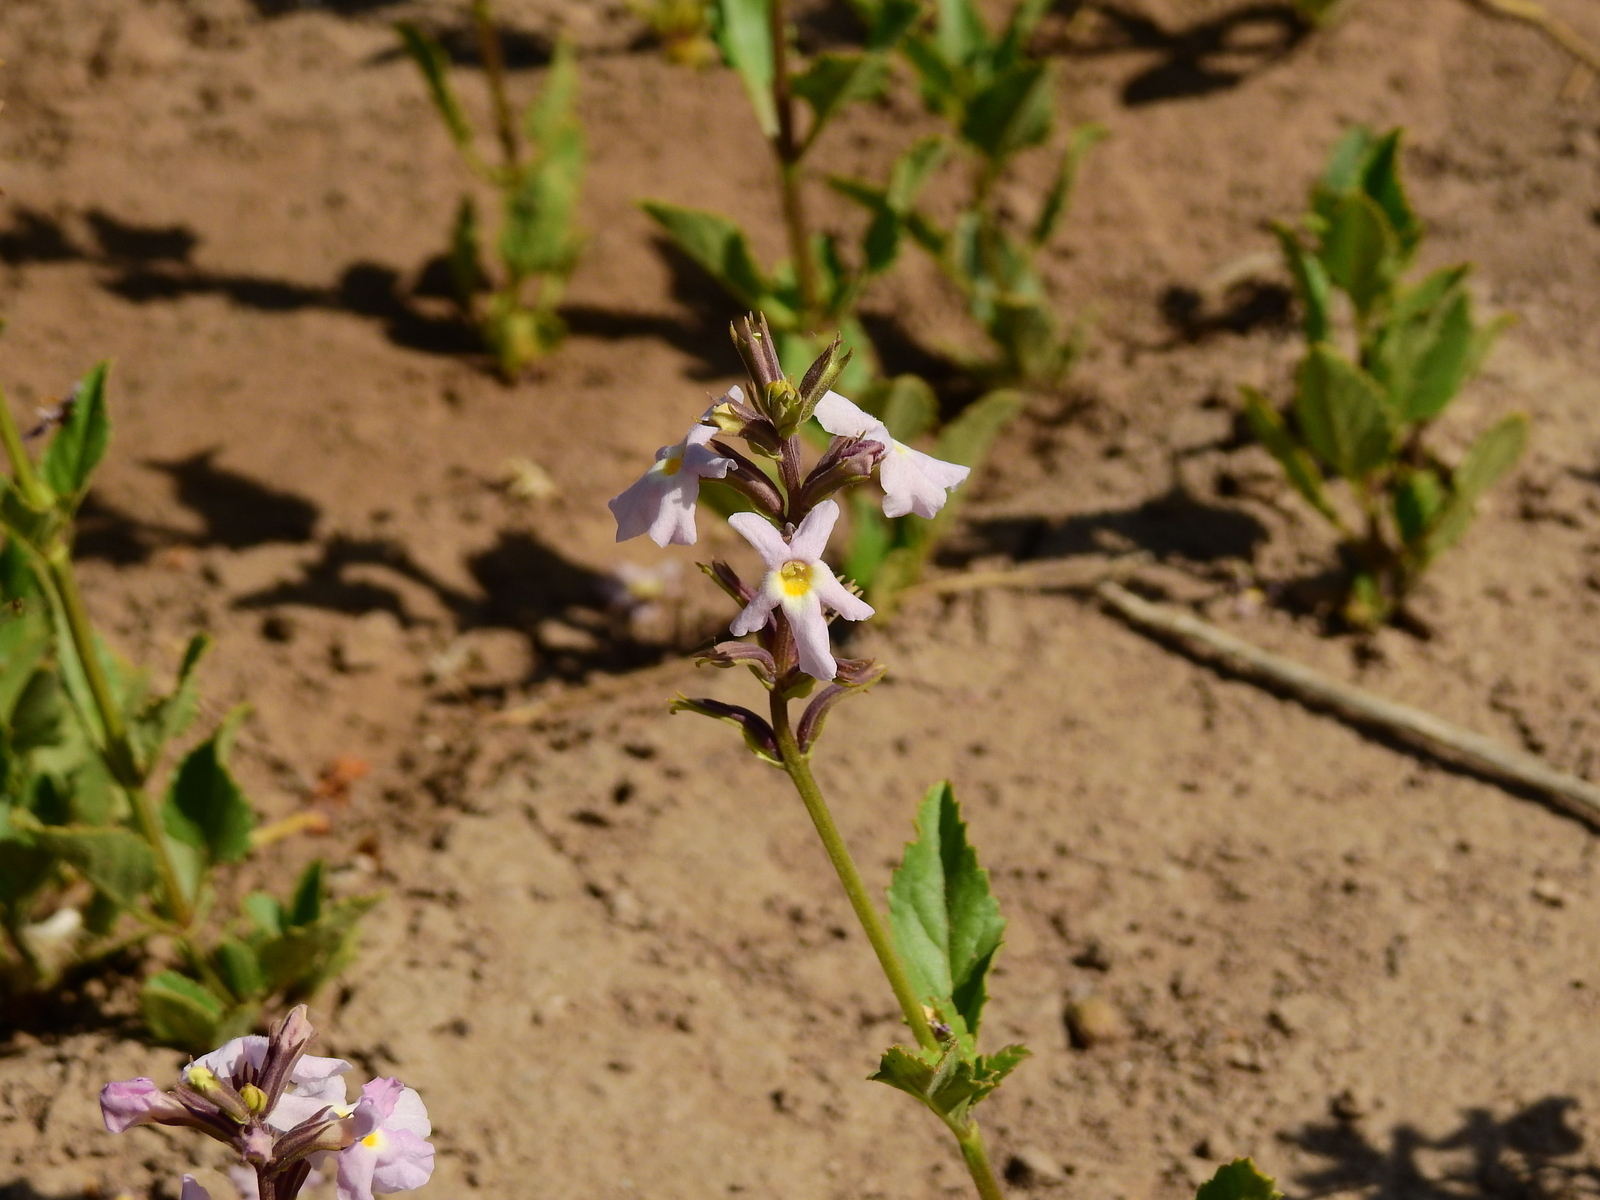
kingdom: Plantae
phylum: Tracheophyta
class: Magnoliopsida
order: Lamiales
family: Verbenaceae
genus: Pitraea
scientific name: Pitraea cuneato-ovata
